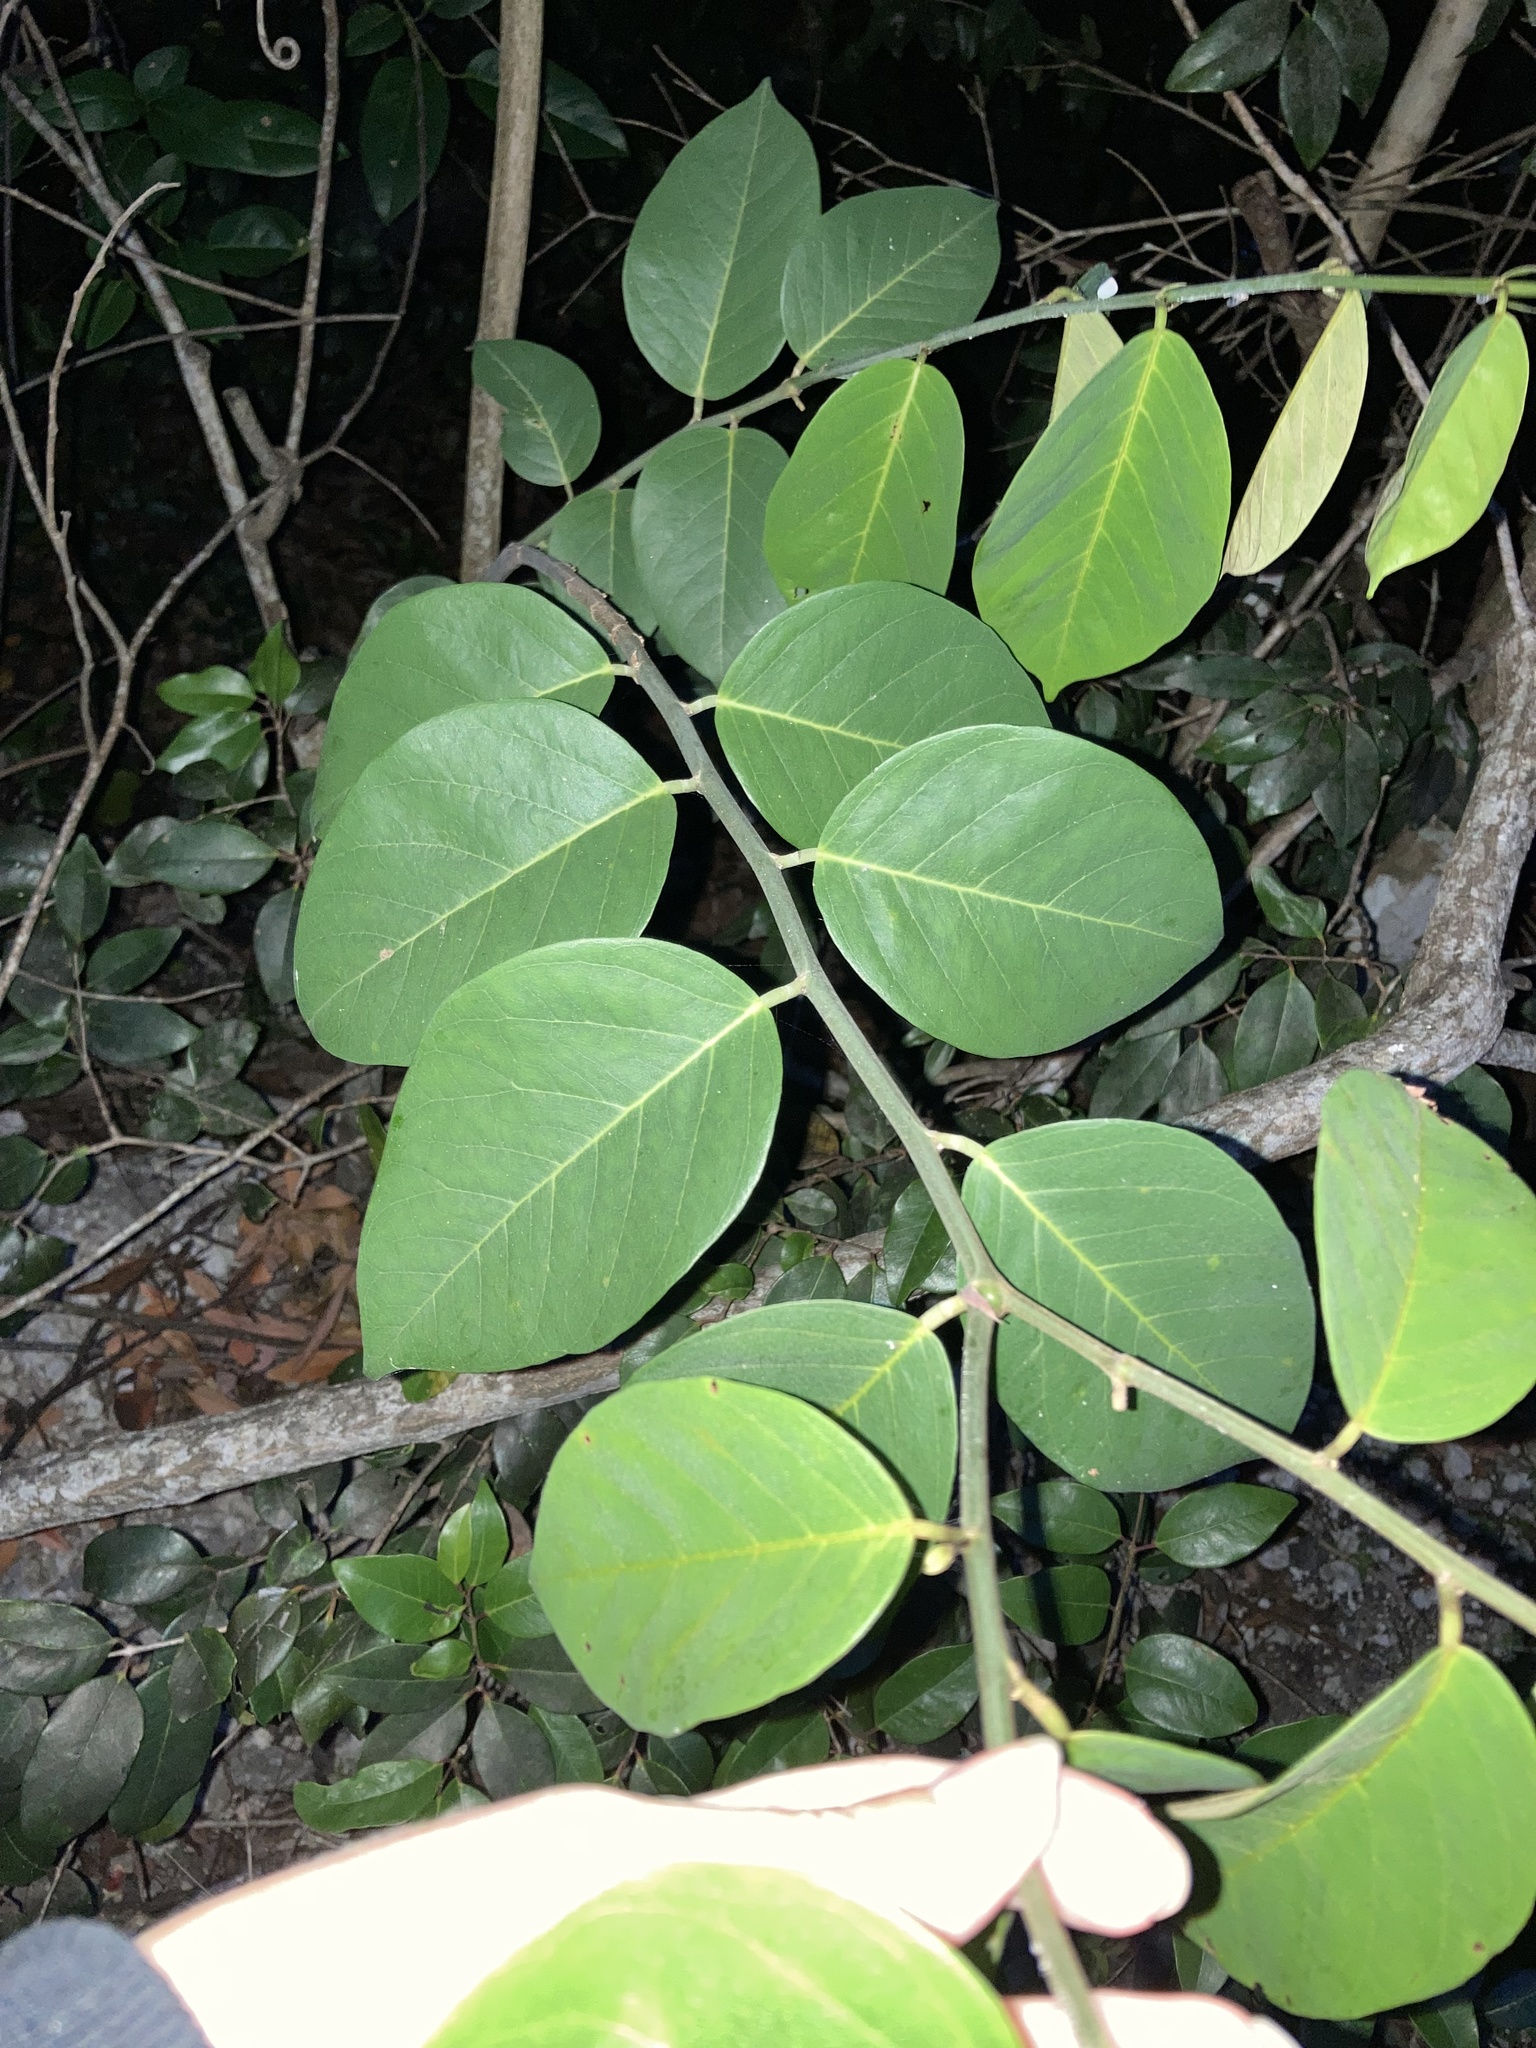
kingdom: Plantae
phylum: Tracheophyta
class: Magnoliopsida
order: Fabales
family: Fabaceae
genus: Dalbergia
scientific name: Dalbergia ecastaphyllum
